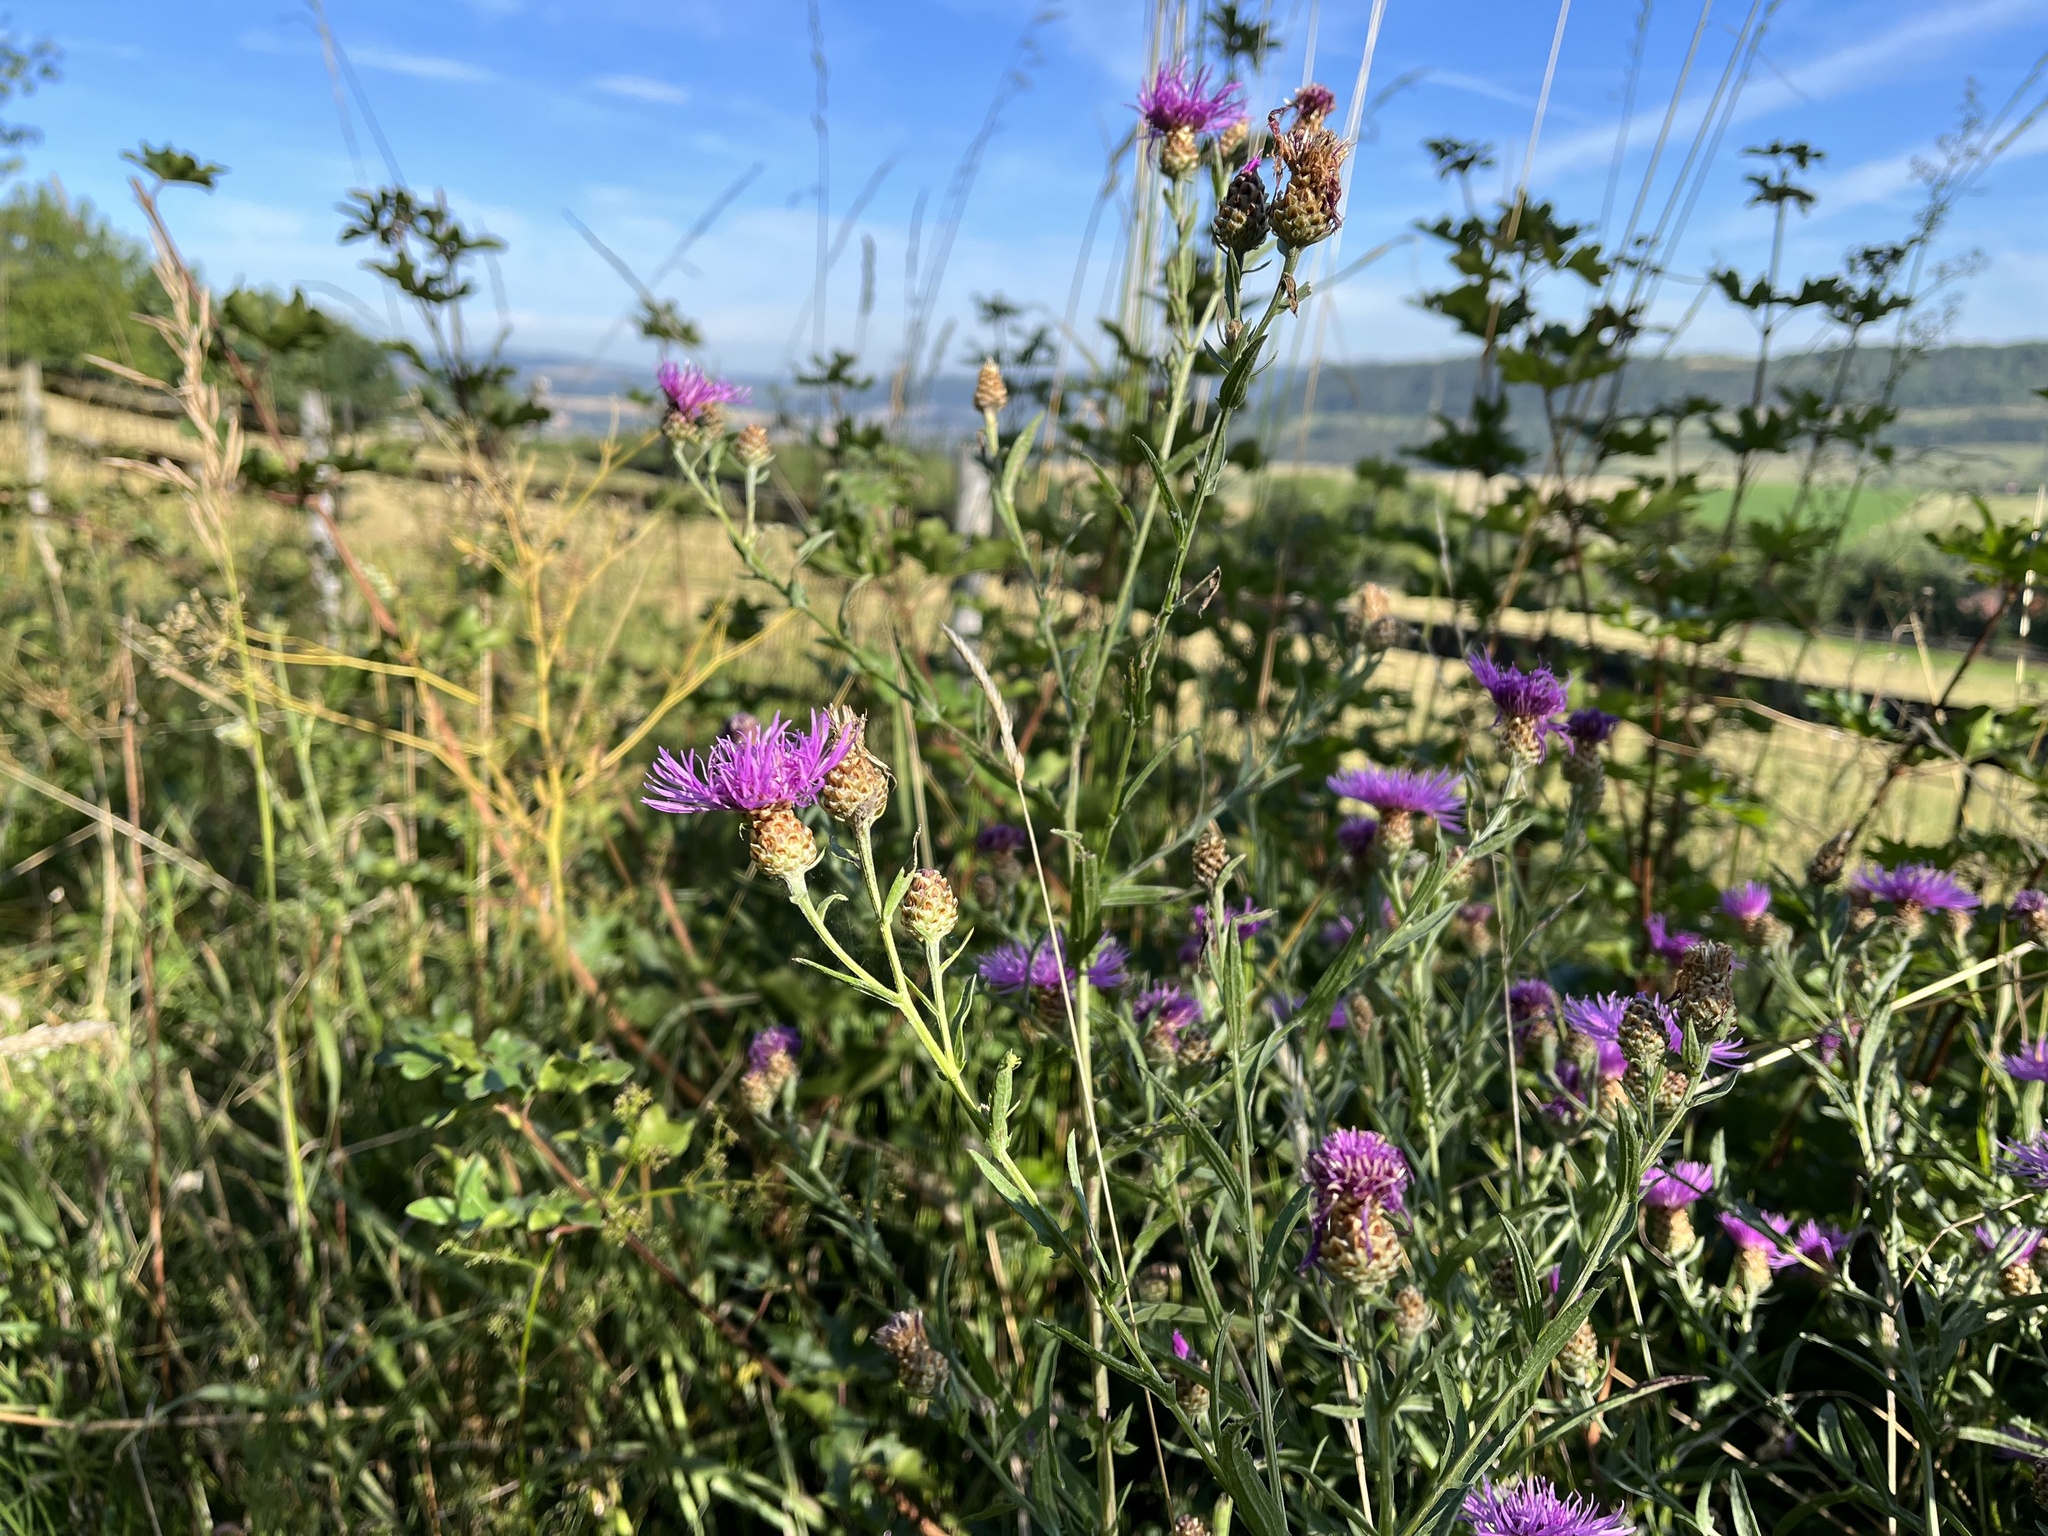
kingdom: Plantae
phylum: Tracheophyta
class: Magnoliopsida
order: Asterales
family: Asteraceae
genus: Centaurea
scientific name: Centaurea jacea
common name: Brown knapweed
